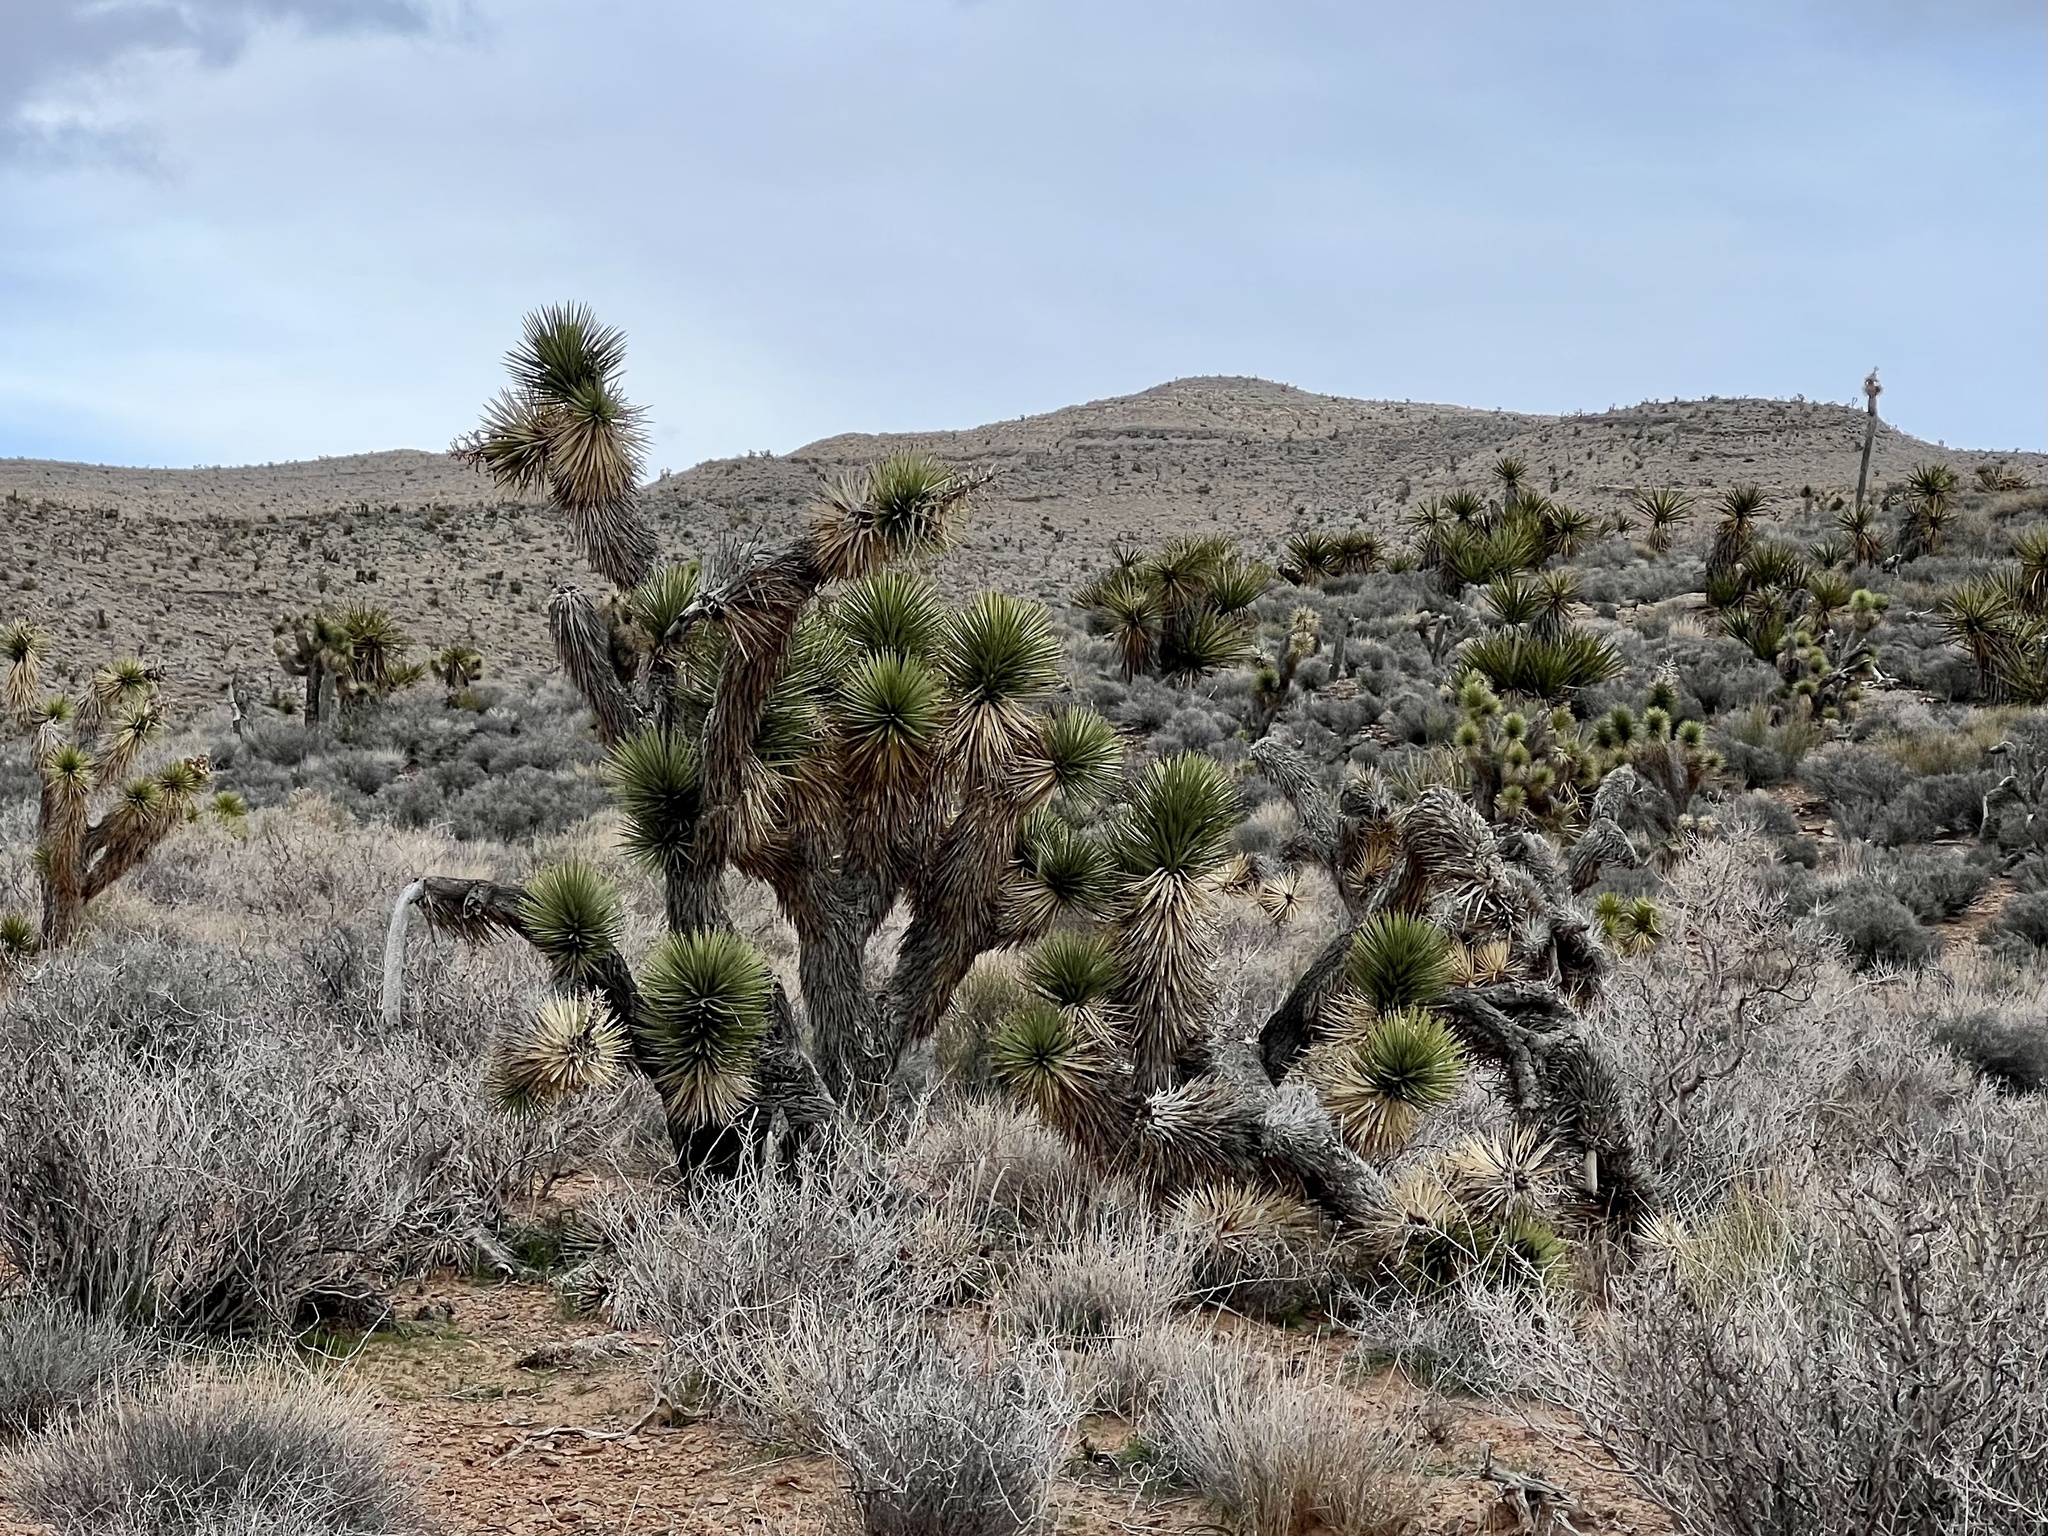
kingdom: Plantae
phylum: Tracheophyta
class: Liliopsida
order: Asparagales
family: Asparagaceae
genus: Yucca
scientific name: Yucca brevifolia
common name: Joshua tree
